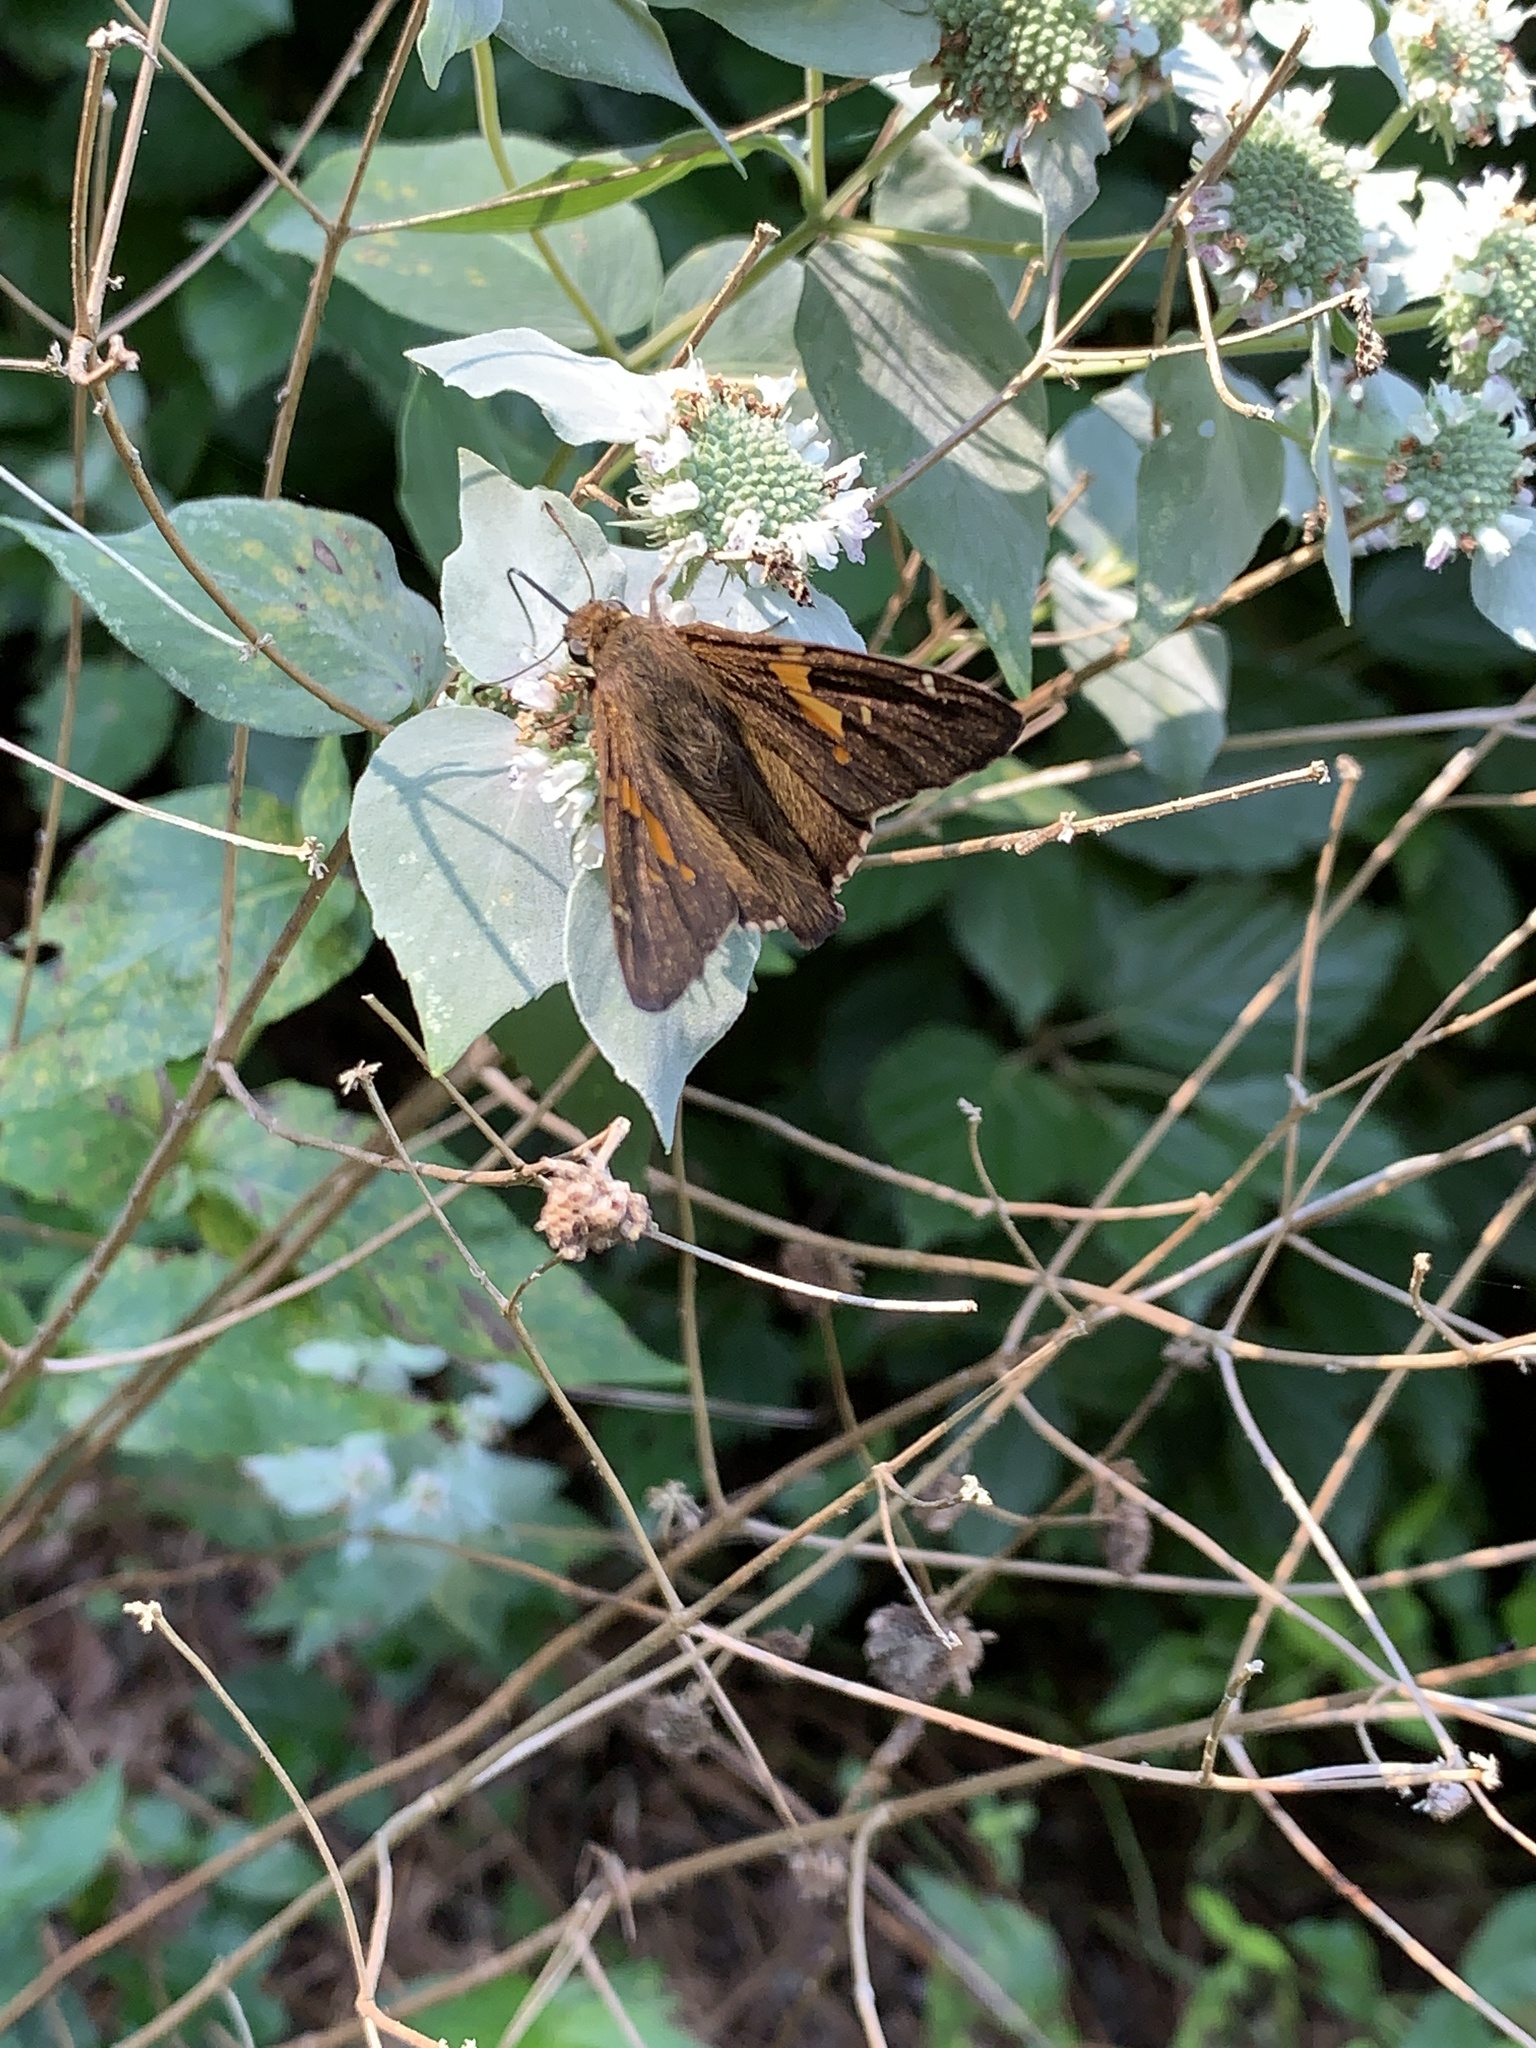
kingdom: Animalia
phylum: Arthropoda
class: Insecta
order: Lepidoptera
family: Hesperiidae
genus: Epargyreus
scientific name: Epargyreus clarus
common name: Silver-spotted skipper
